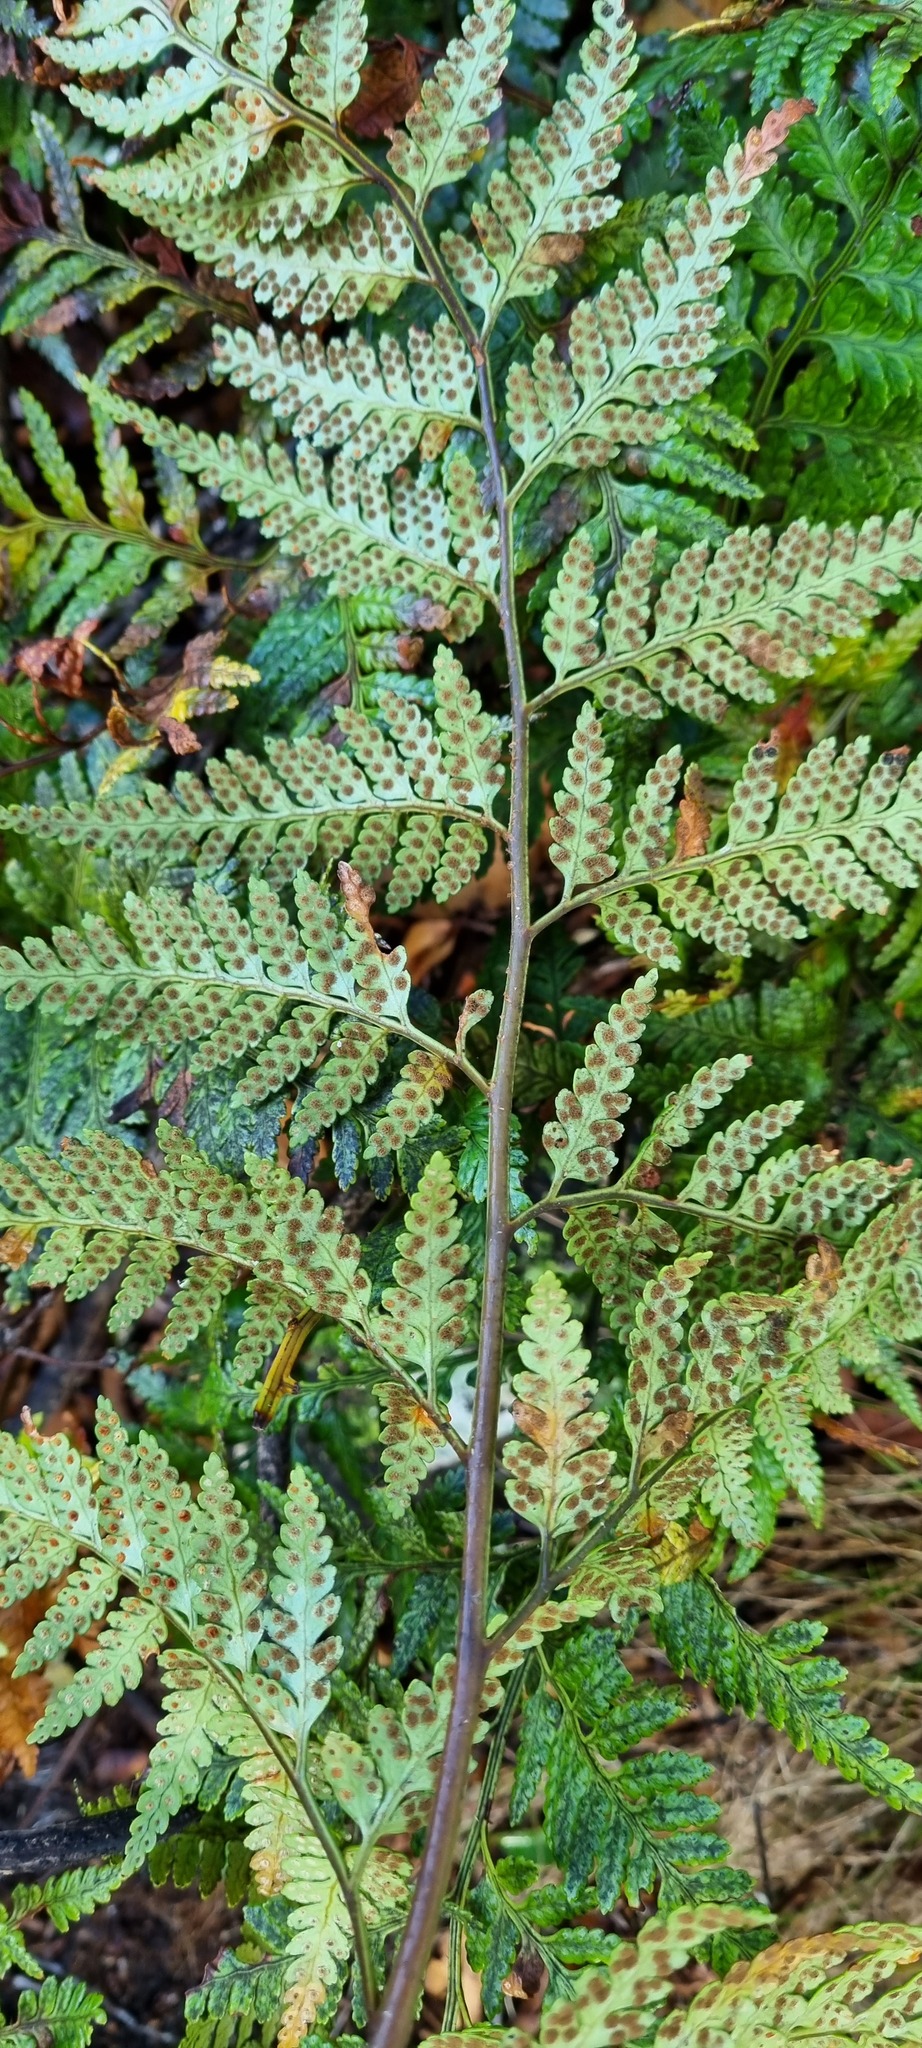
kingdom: Plantae
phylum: Tracheophyta
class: Polypodiopsida
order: Polypodiales
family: Dryopteridaceae
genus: Rumohra
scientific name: Rumohra adiantiformis
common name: Leather fern
